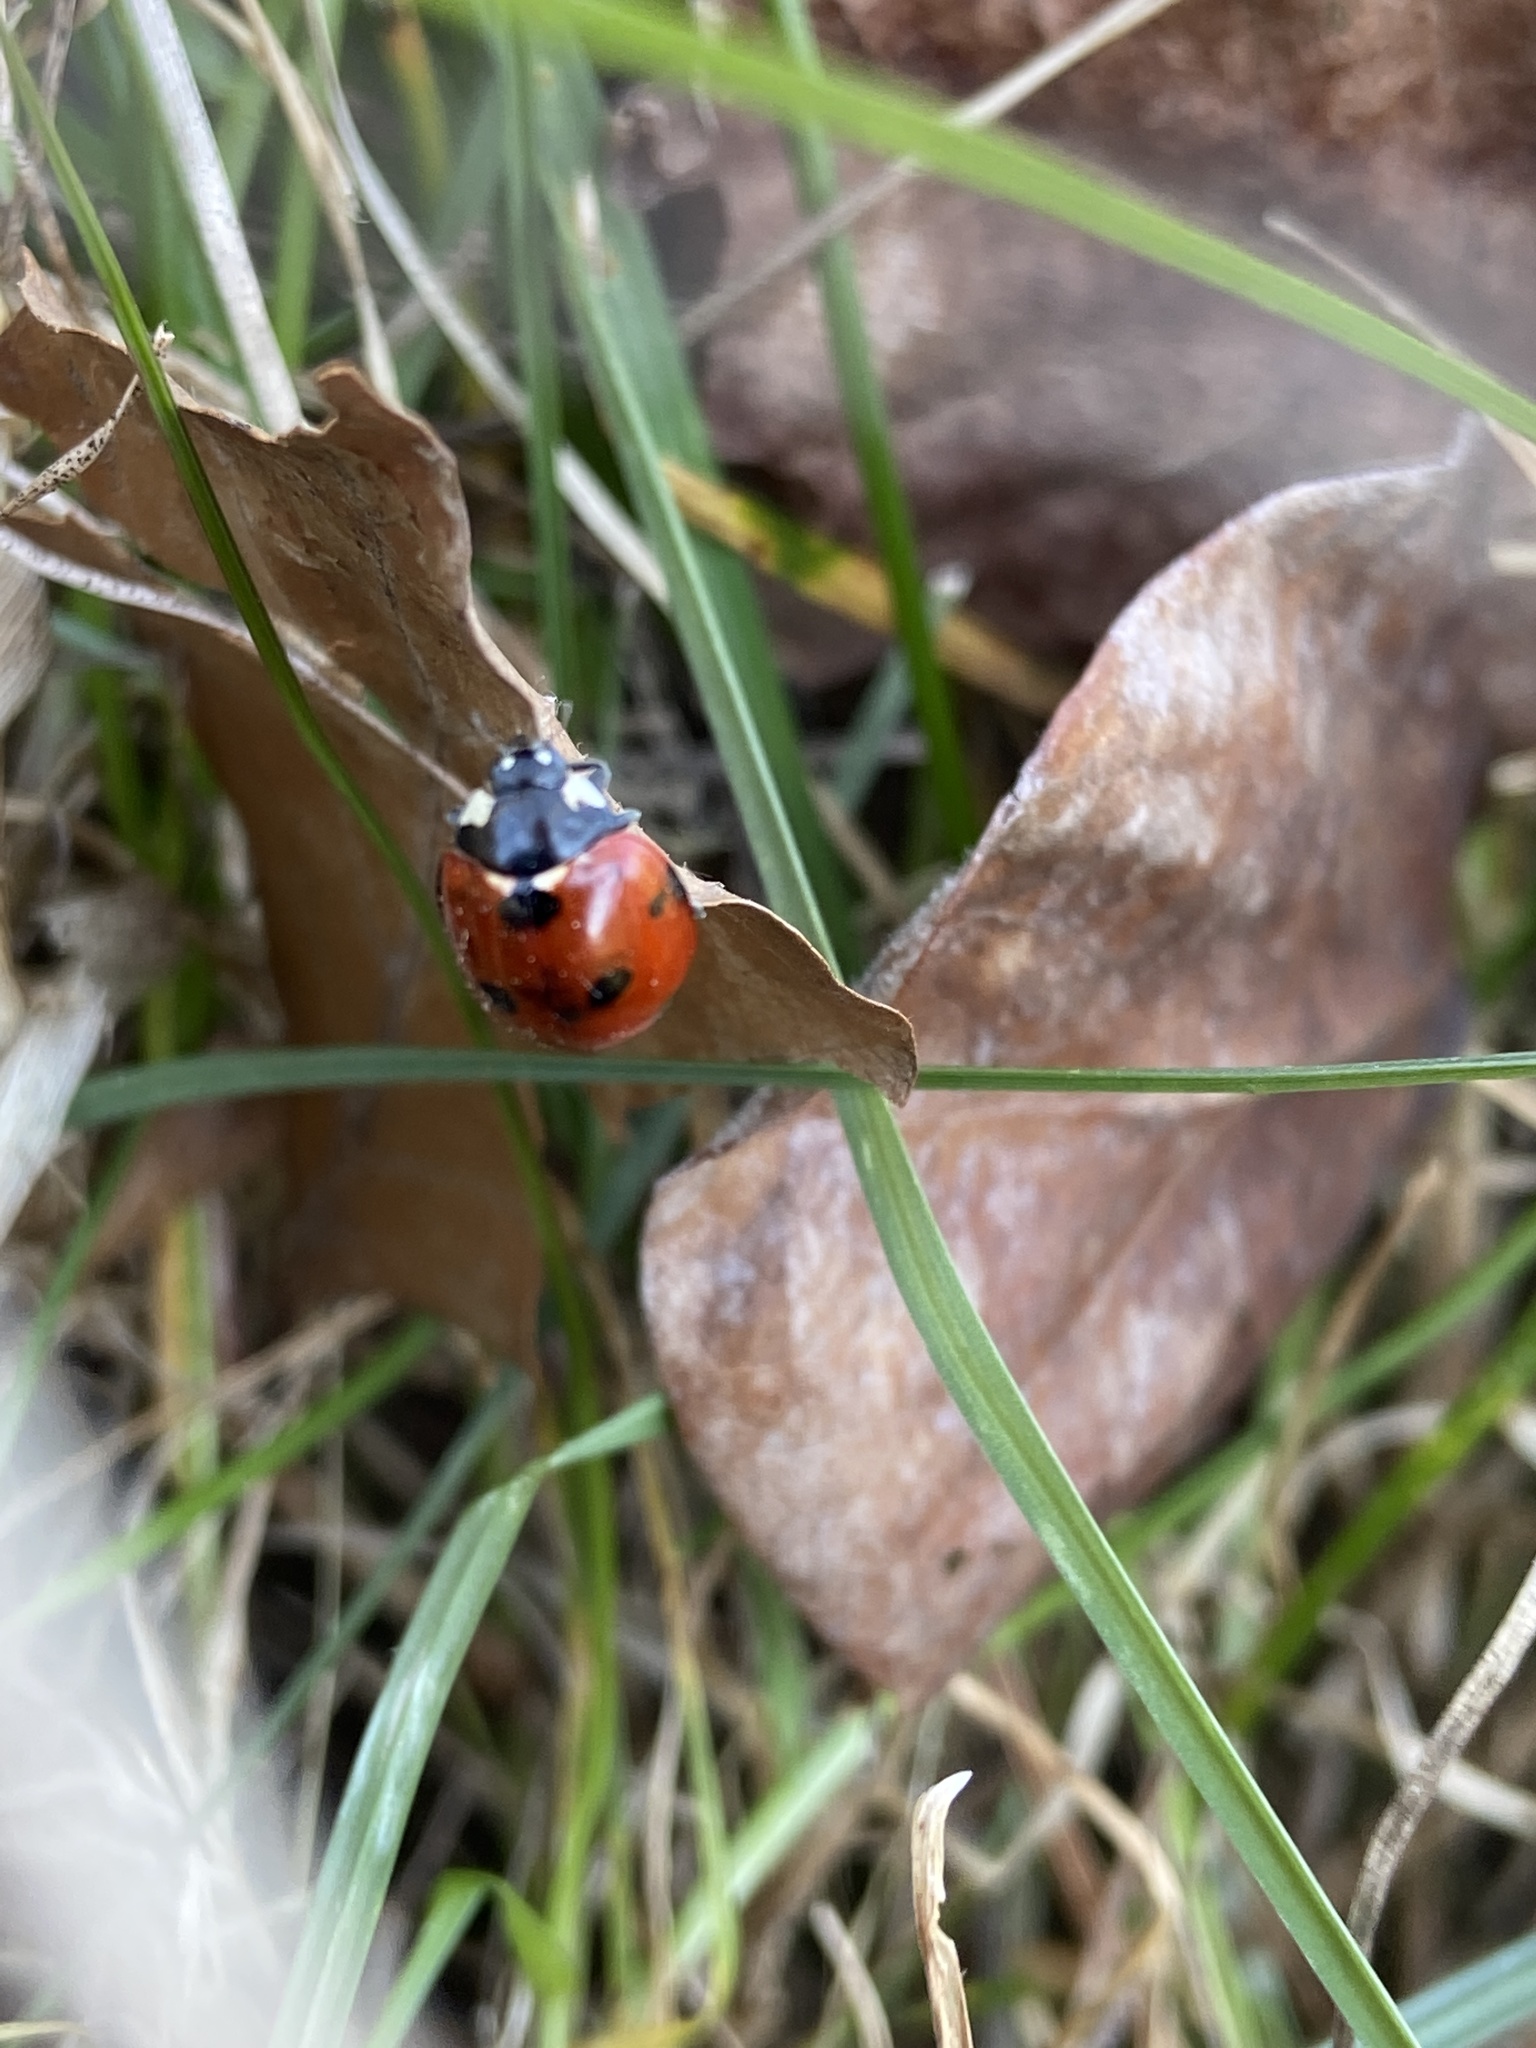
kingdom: Animalia
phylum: Arthropoda
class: Insecta
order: Coleoptera
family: Coccinellidae
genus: Coccinella
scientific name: Coccinella septempunctata
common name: Sevenspotted lady beetle
